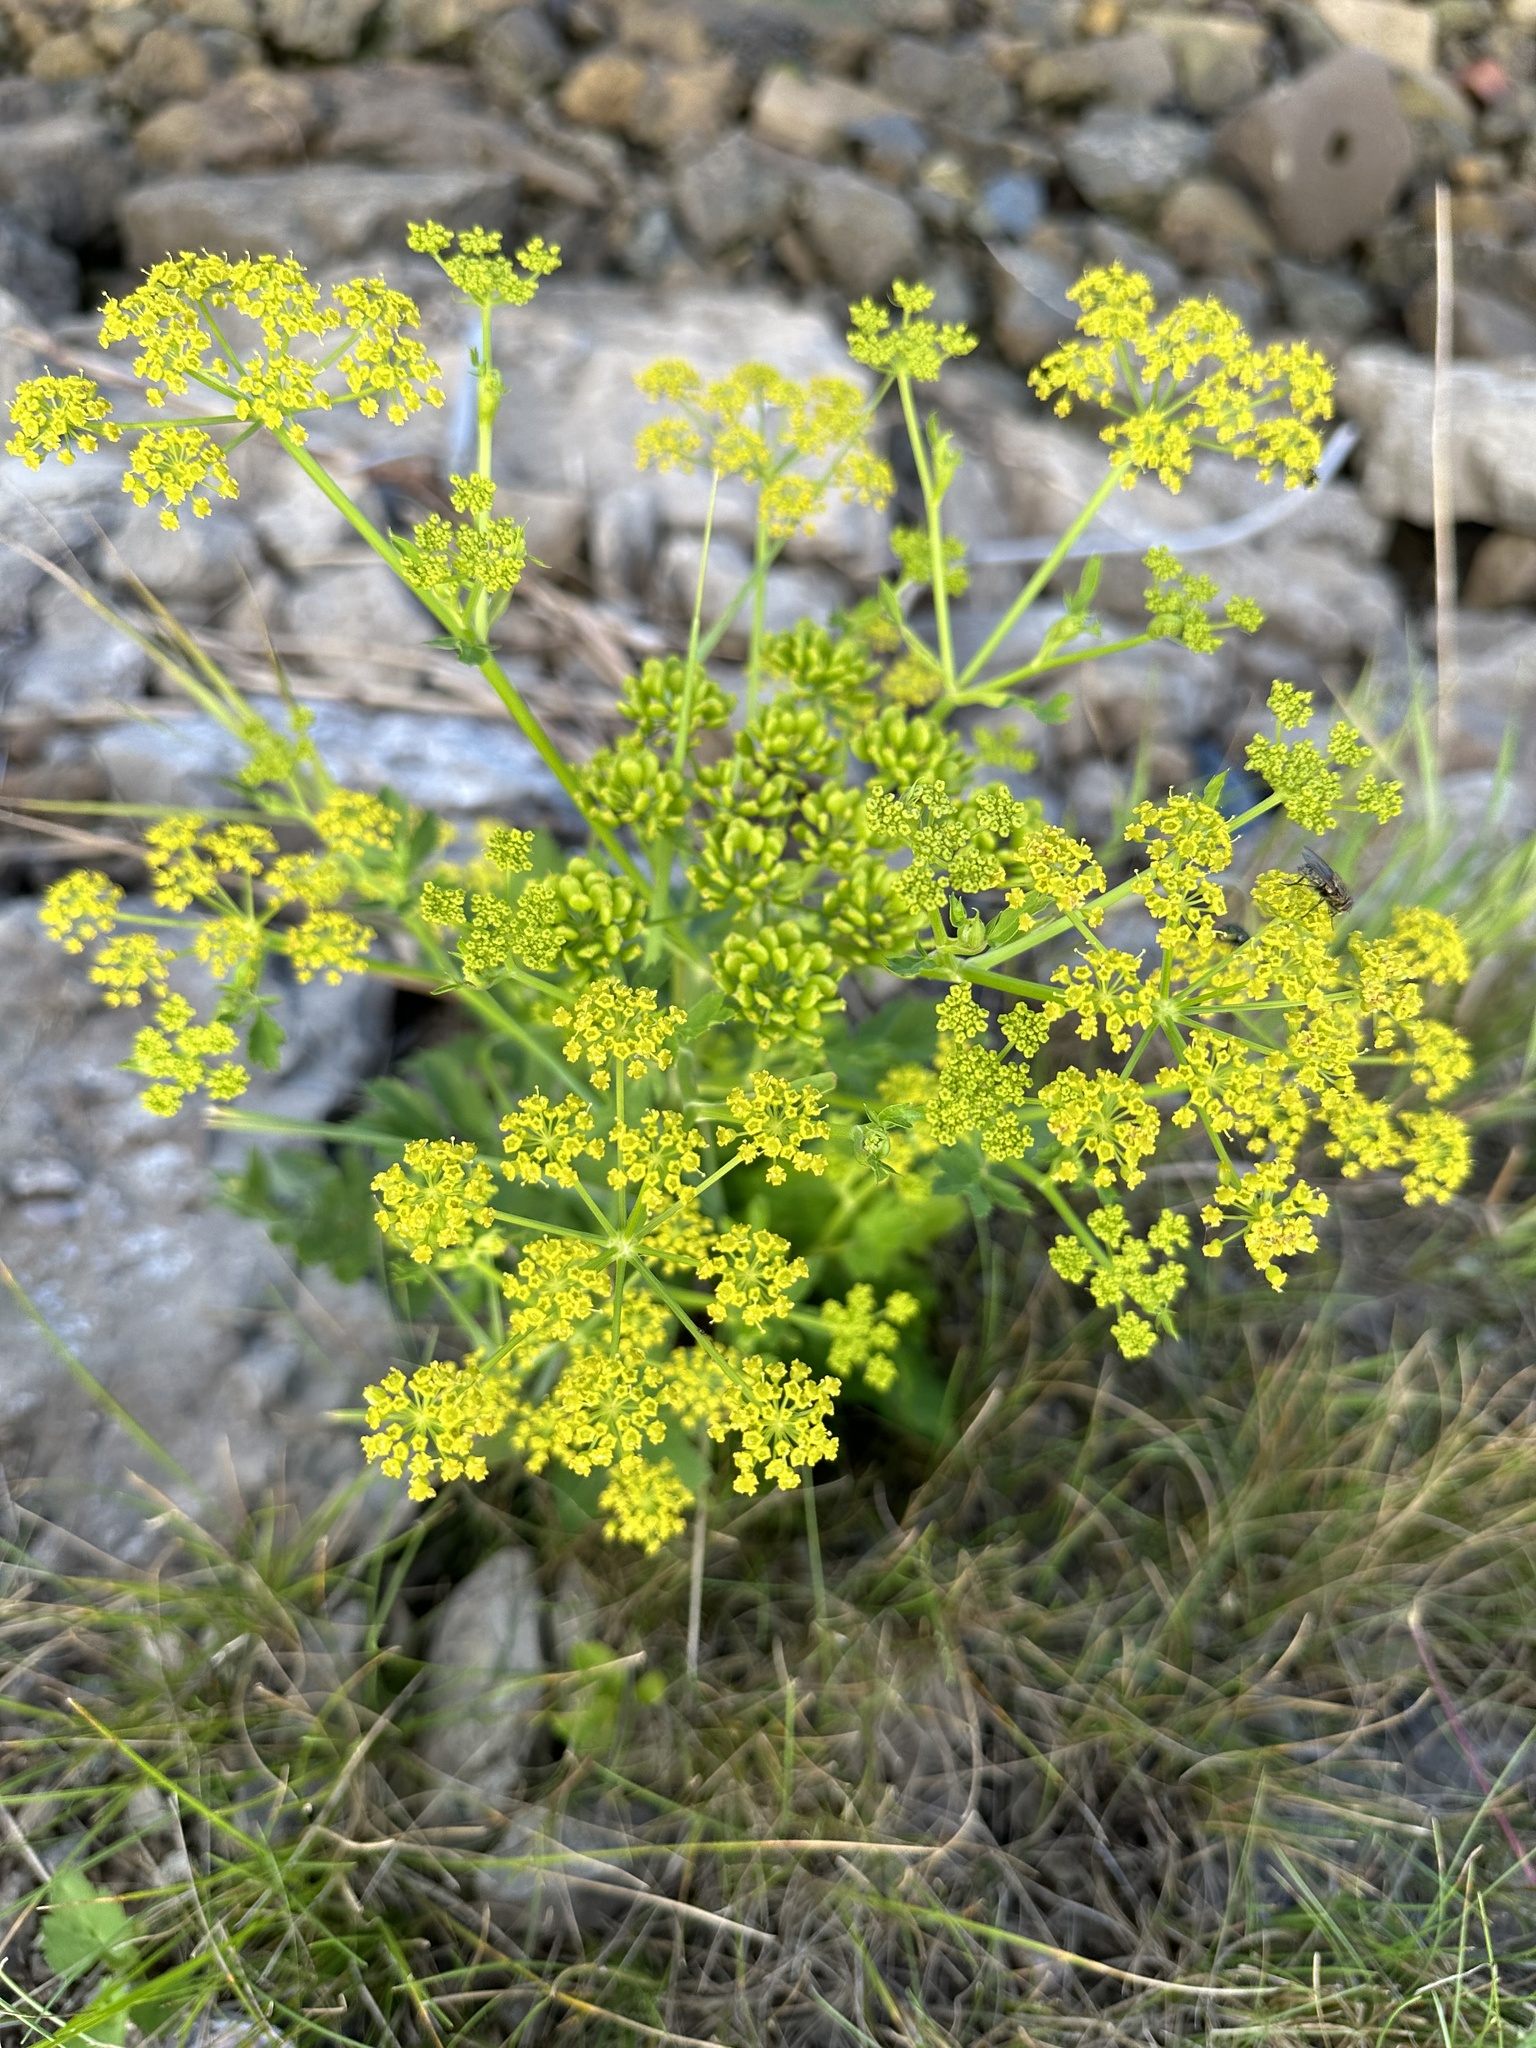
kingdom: Plantae
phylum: Tracheophyta
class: Magnoliopsida
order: Apiales
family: Apiaceae
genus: Pastinaca
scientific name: Pastinaca sativa
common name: Wild parsnip
